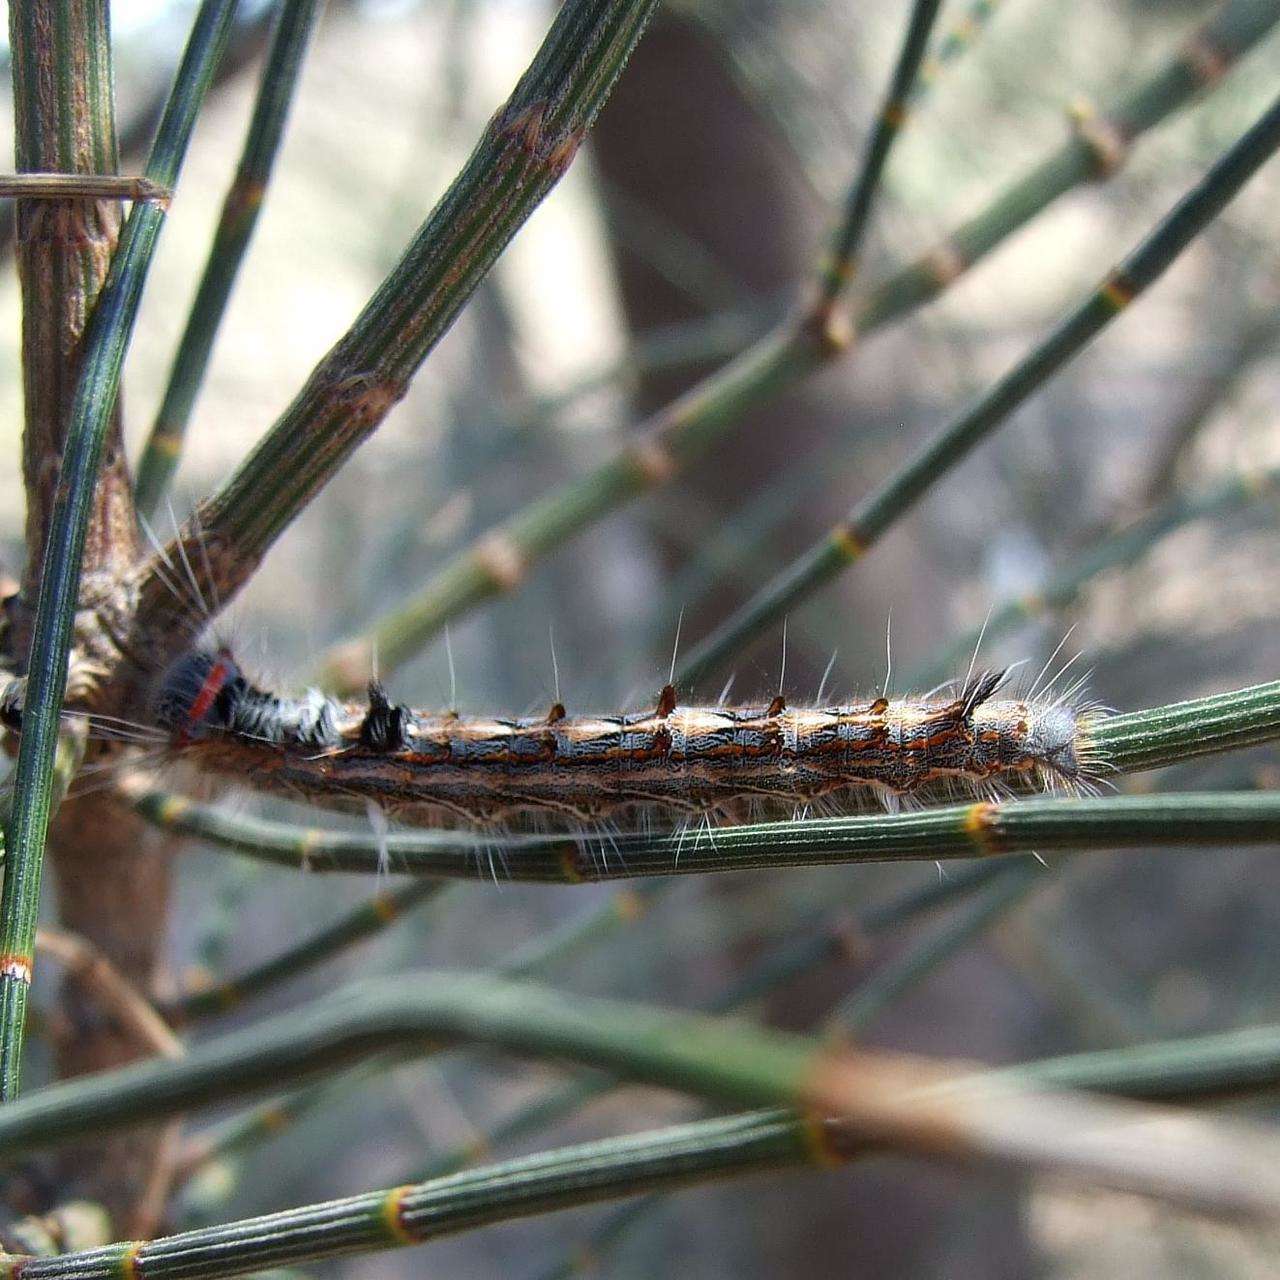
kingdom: Animalia
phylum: Arthropoda
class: Insecta
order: Lepidoptera
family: Lasiocampidae
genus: Pernattia
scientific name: Pernattia pusilla
